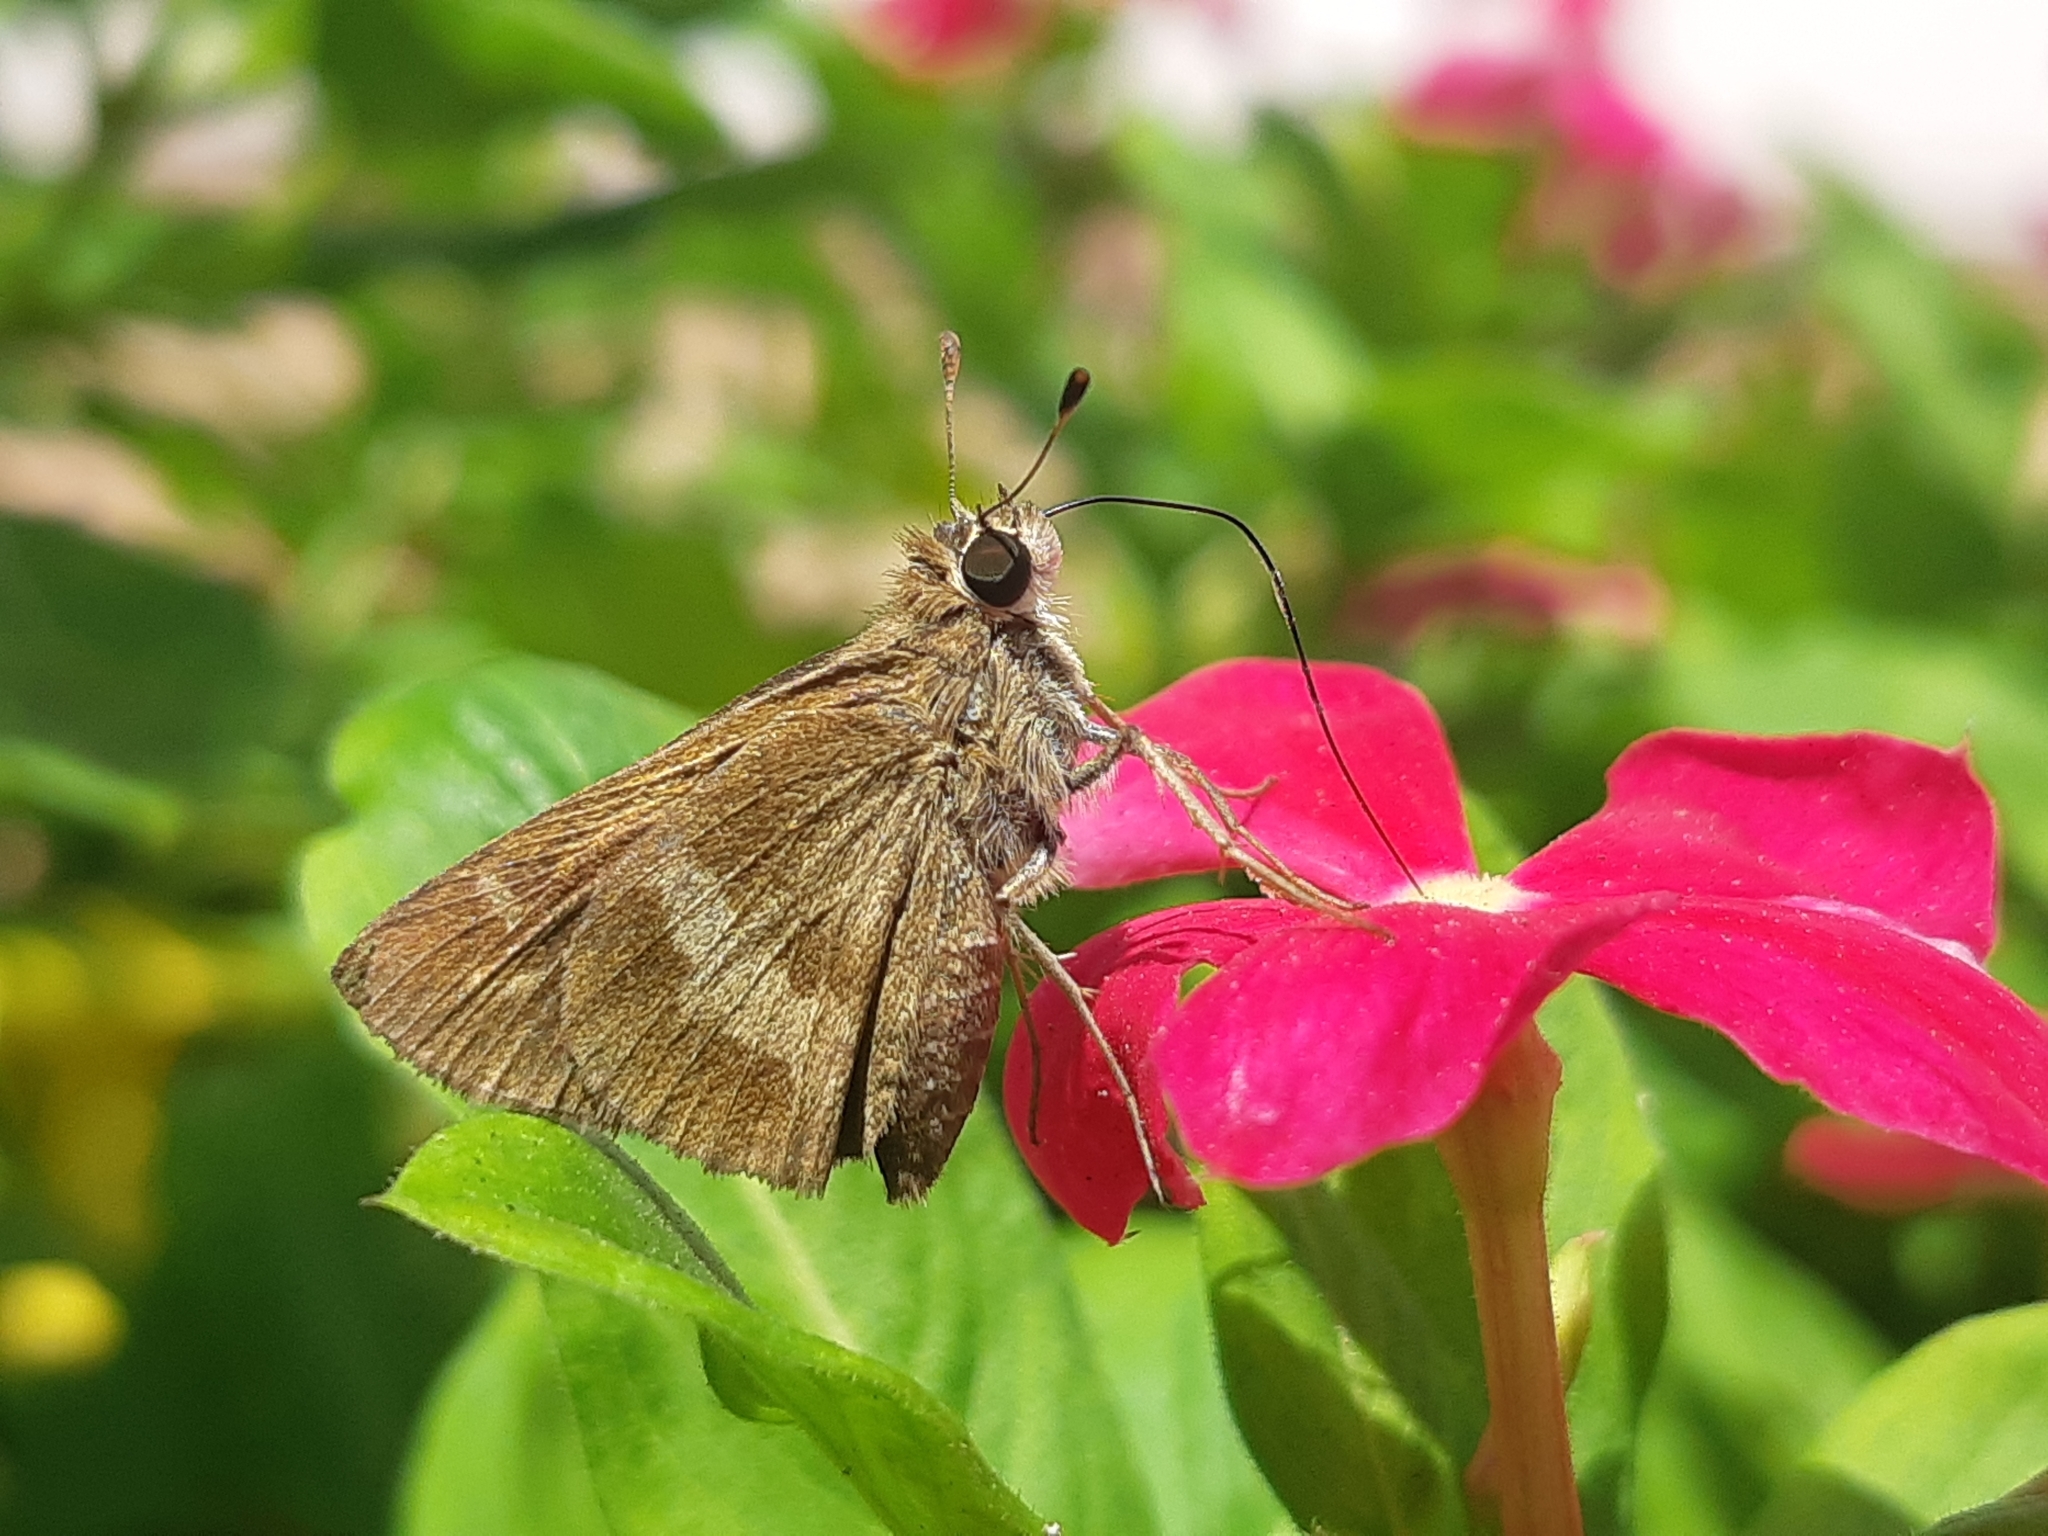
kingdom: Animalia
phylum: Arthropoda
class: Insecta
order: Lepidoptera
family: Hesperiidae
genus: Polites
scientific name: Polites vibex
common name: Whirlabout
